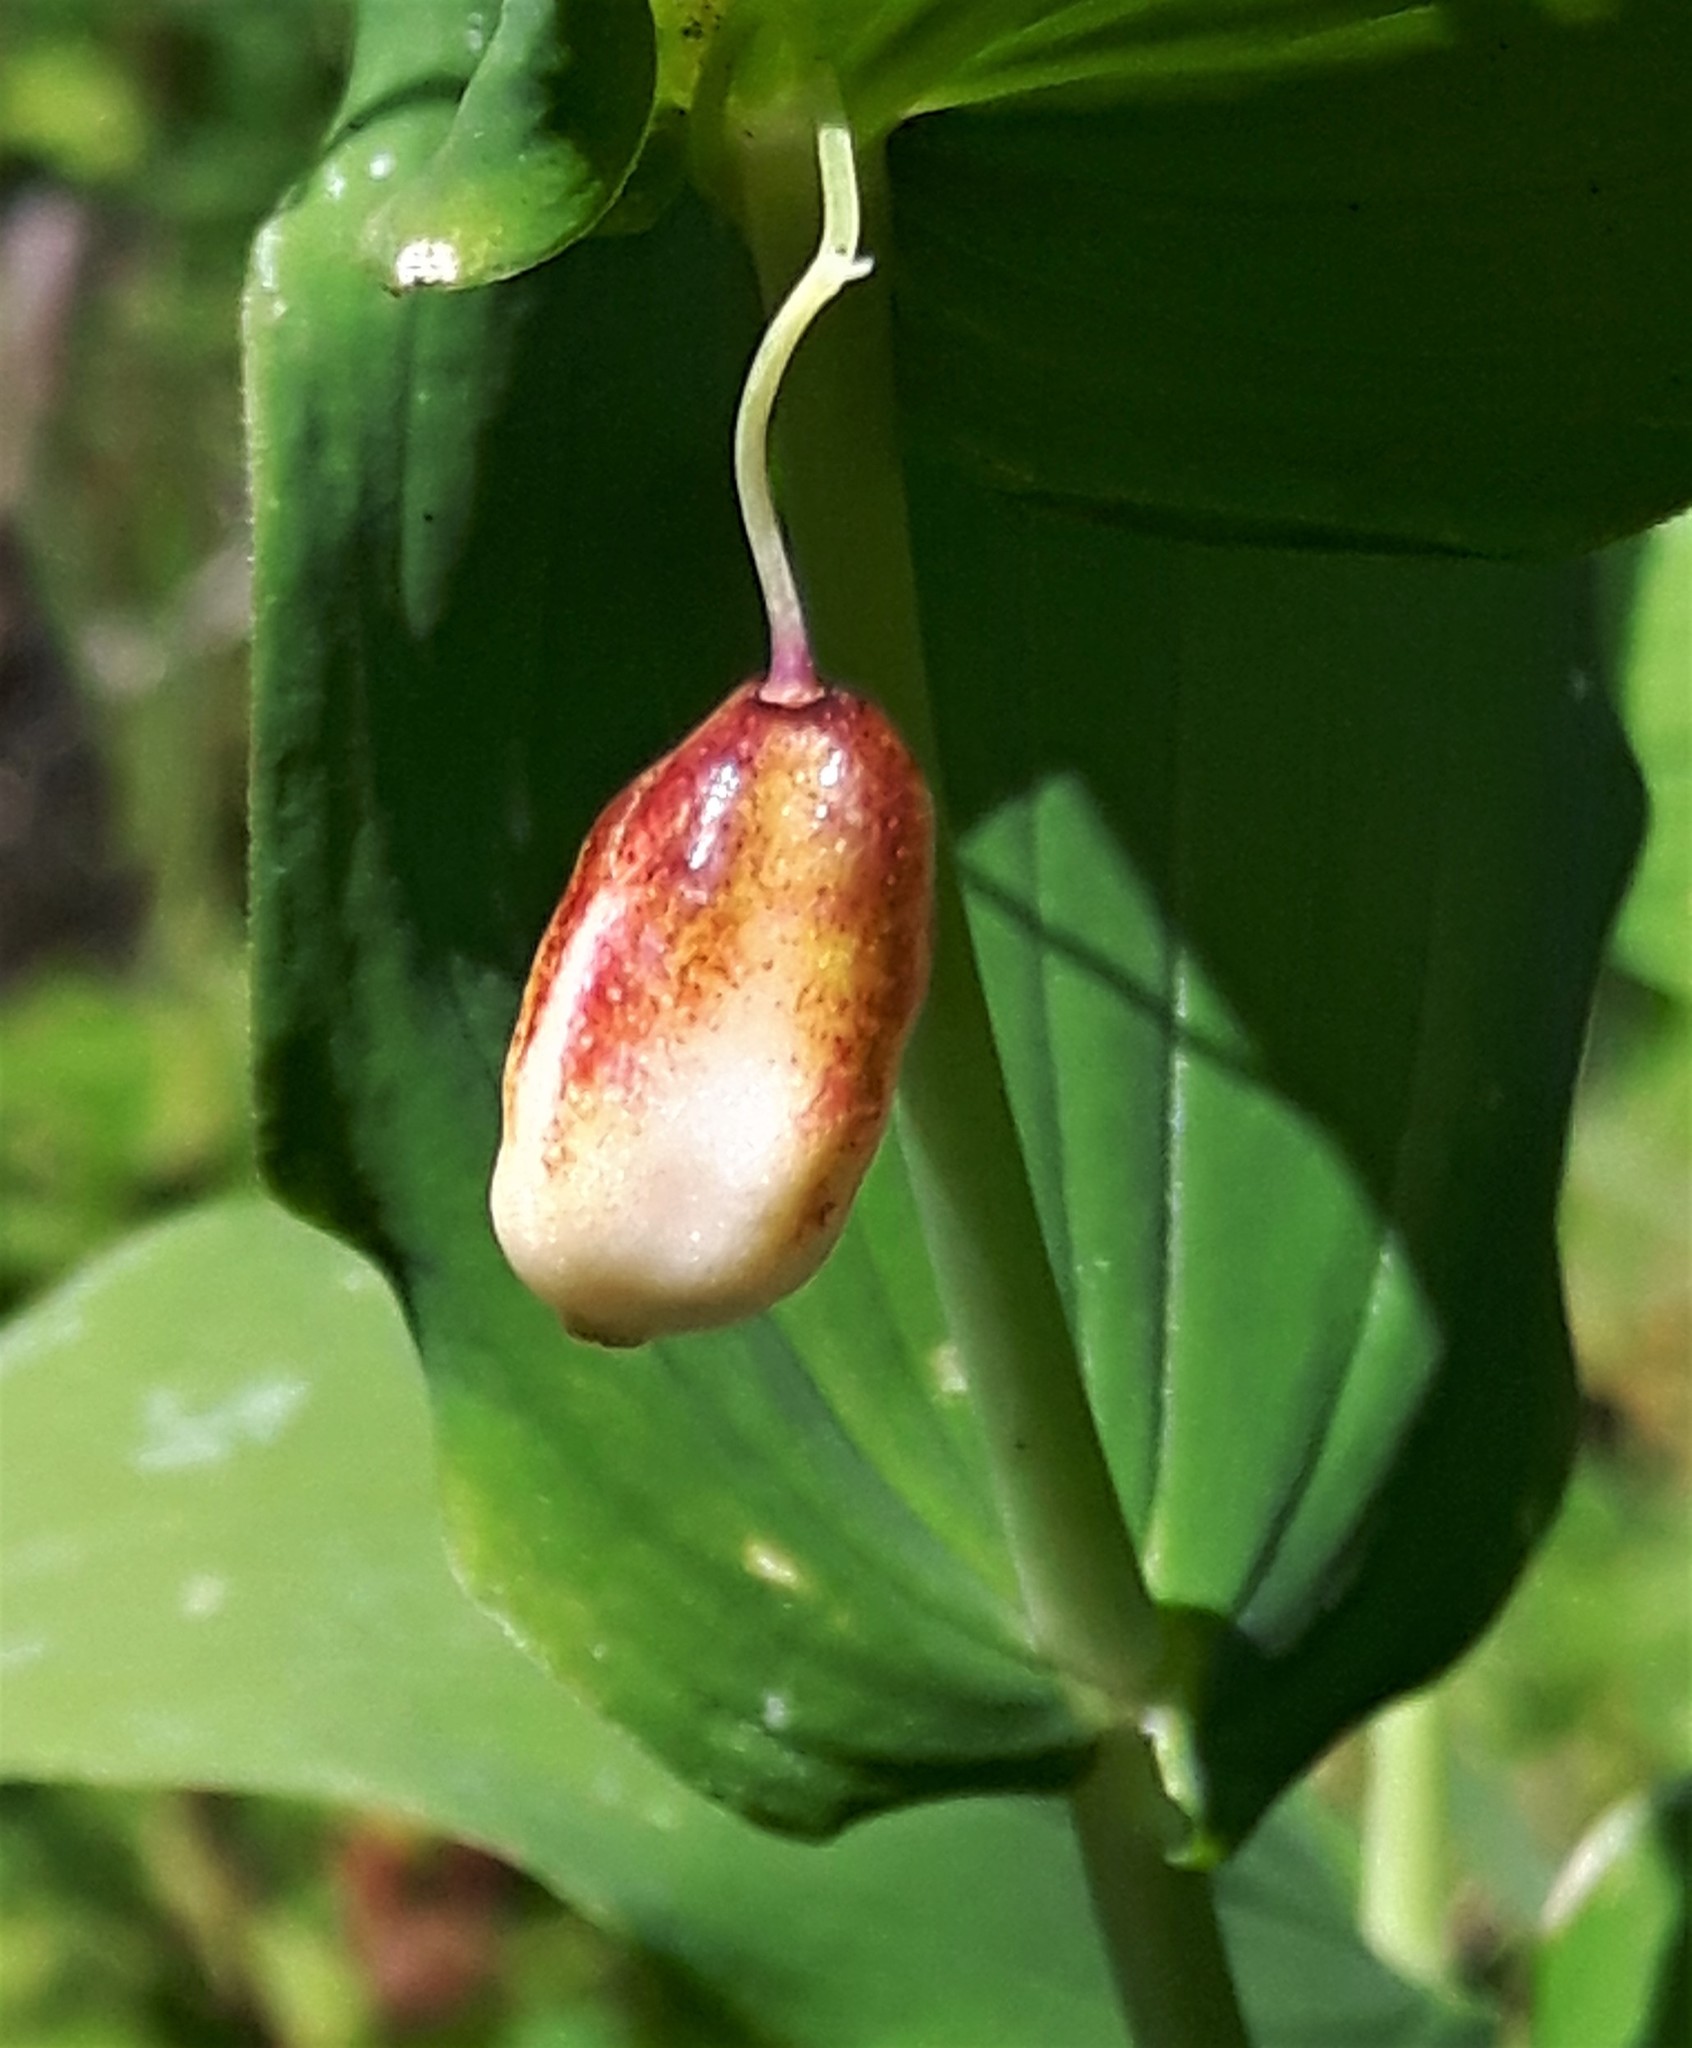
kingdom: Plantae
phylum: Tracheophyta
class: Liliopsida
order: Liliales
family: Liliaceae
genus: Streptopus
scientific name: Streptopus amplexifolius
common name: Clasp twisted stalk
